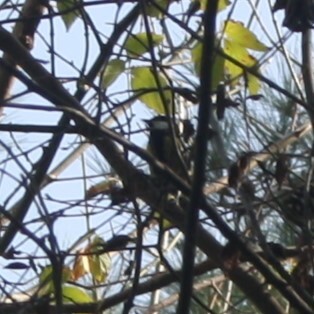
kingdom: Animalia
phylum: Chordata
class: Aves
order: Passeriformes
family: Paridae
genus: Parus
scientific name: Parus major
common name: Great tit
